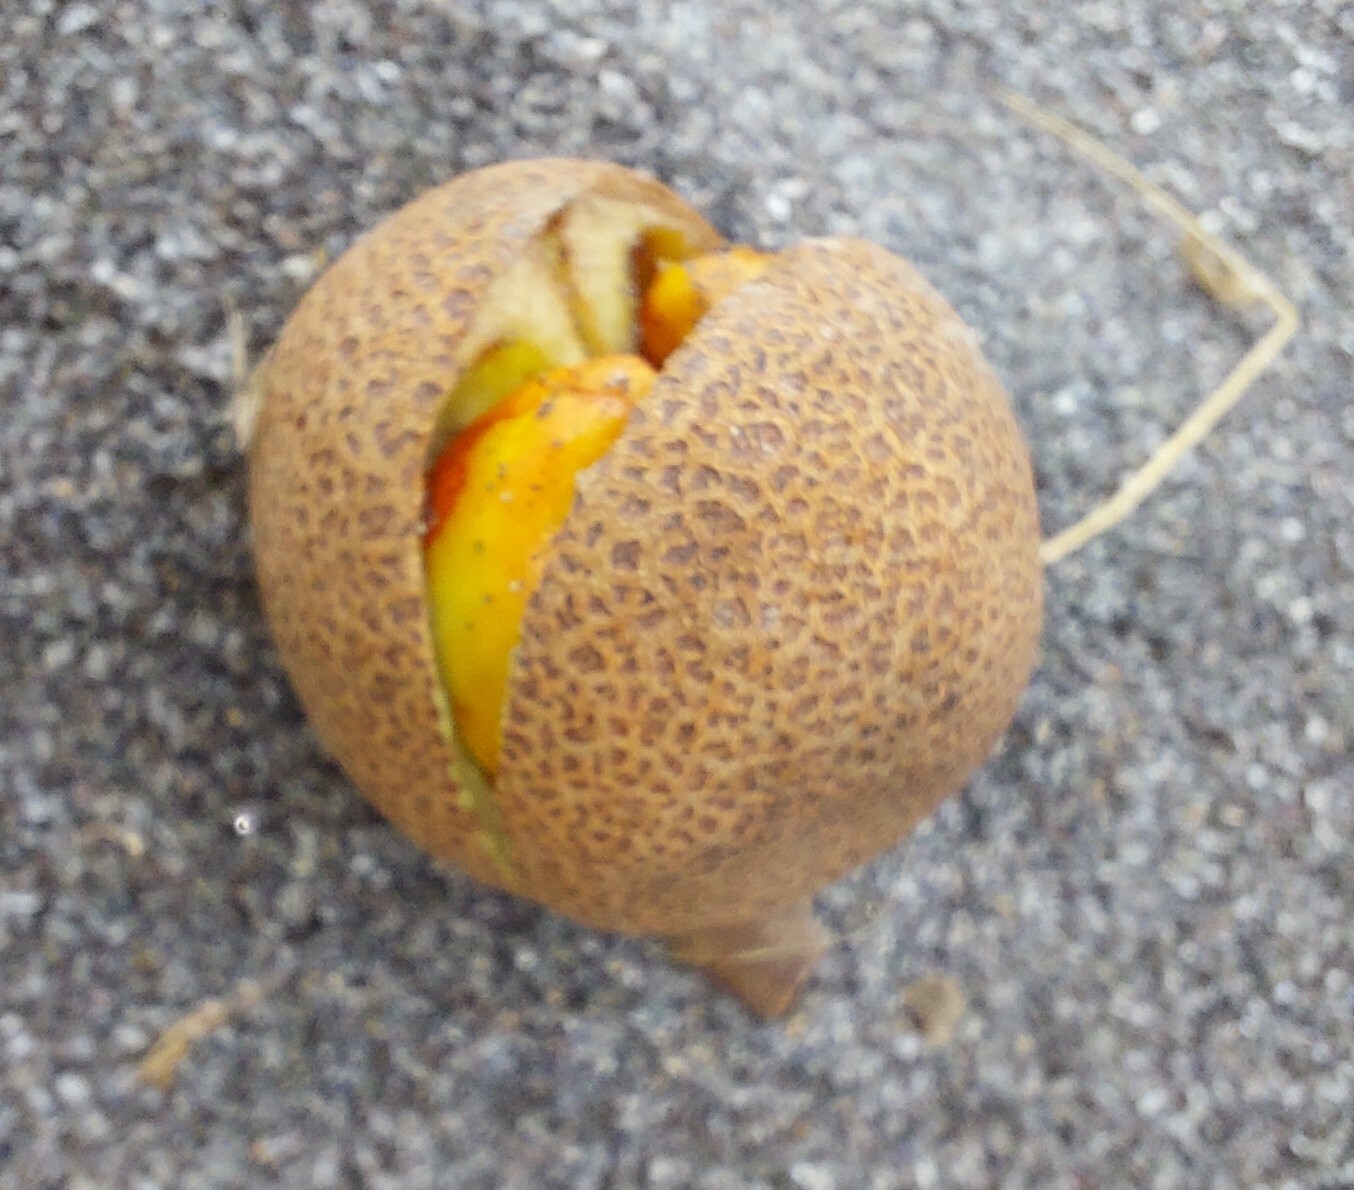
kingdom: Plantae
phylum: Tracheophyta
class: Magnoliopsida
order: Sapindales
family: Meliaceae
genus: Didymocheton
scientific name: Didymocheton spectabilis
